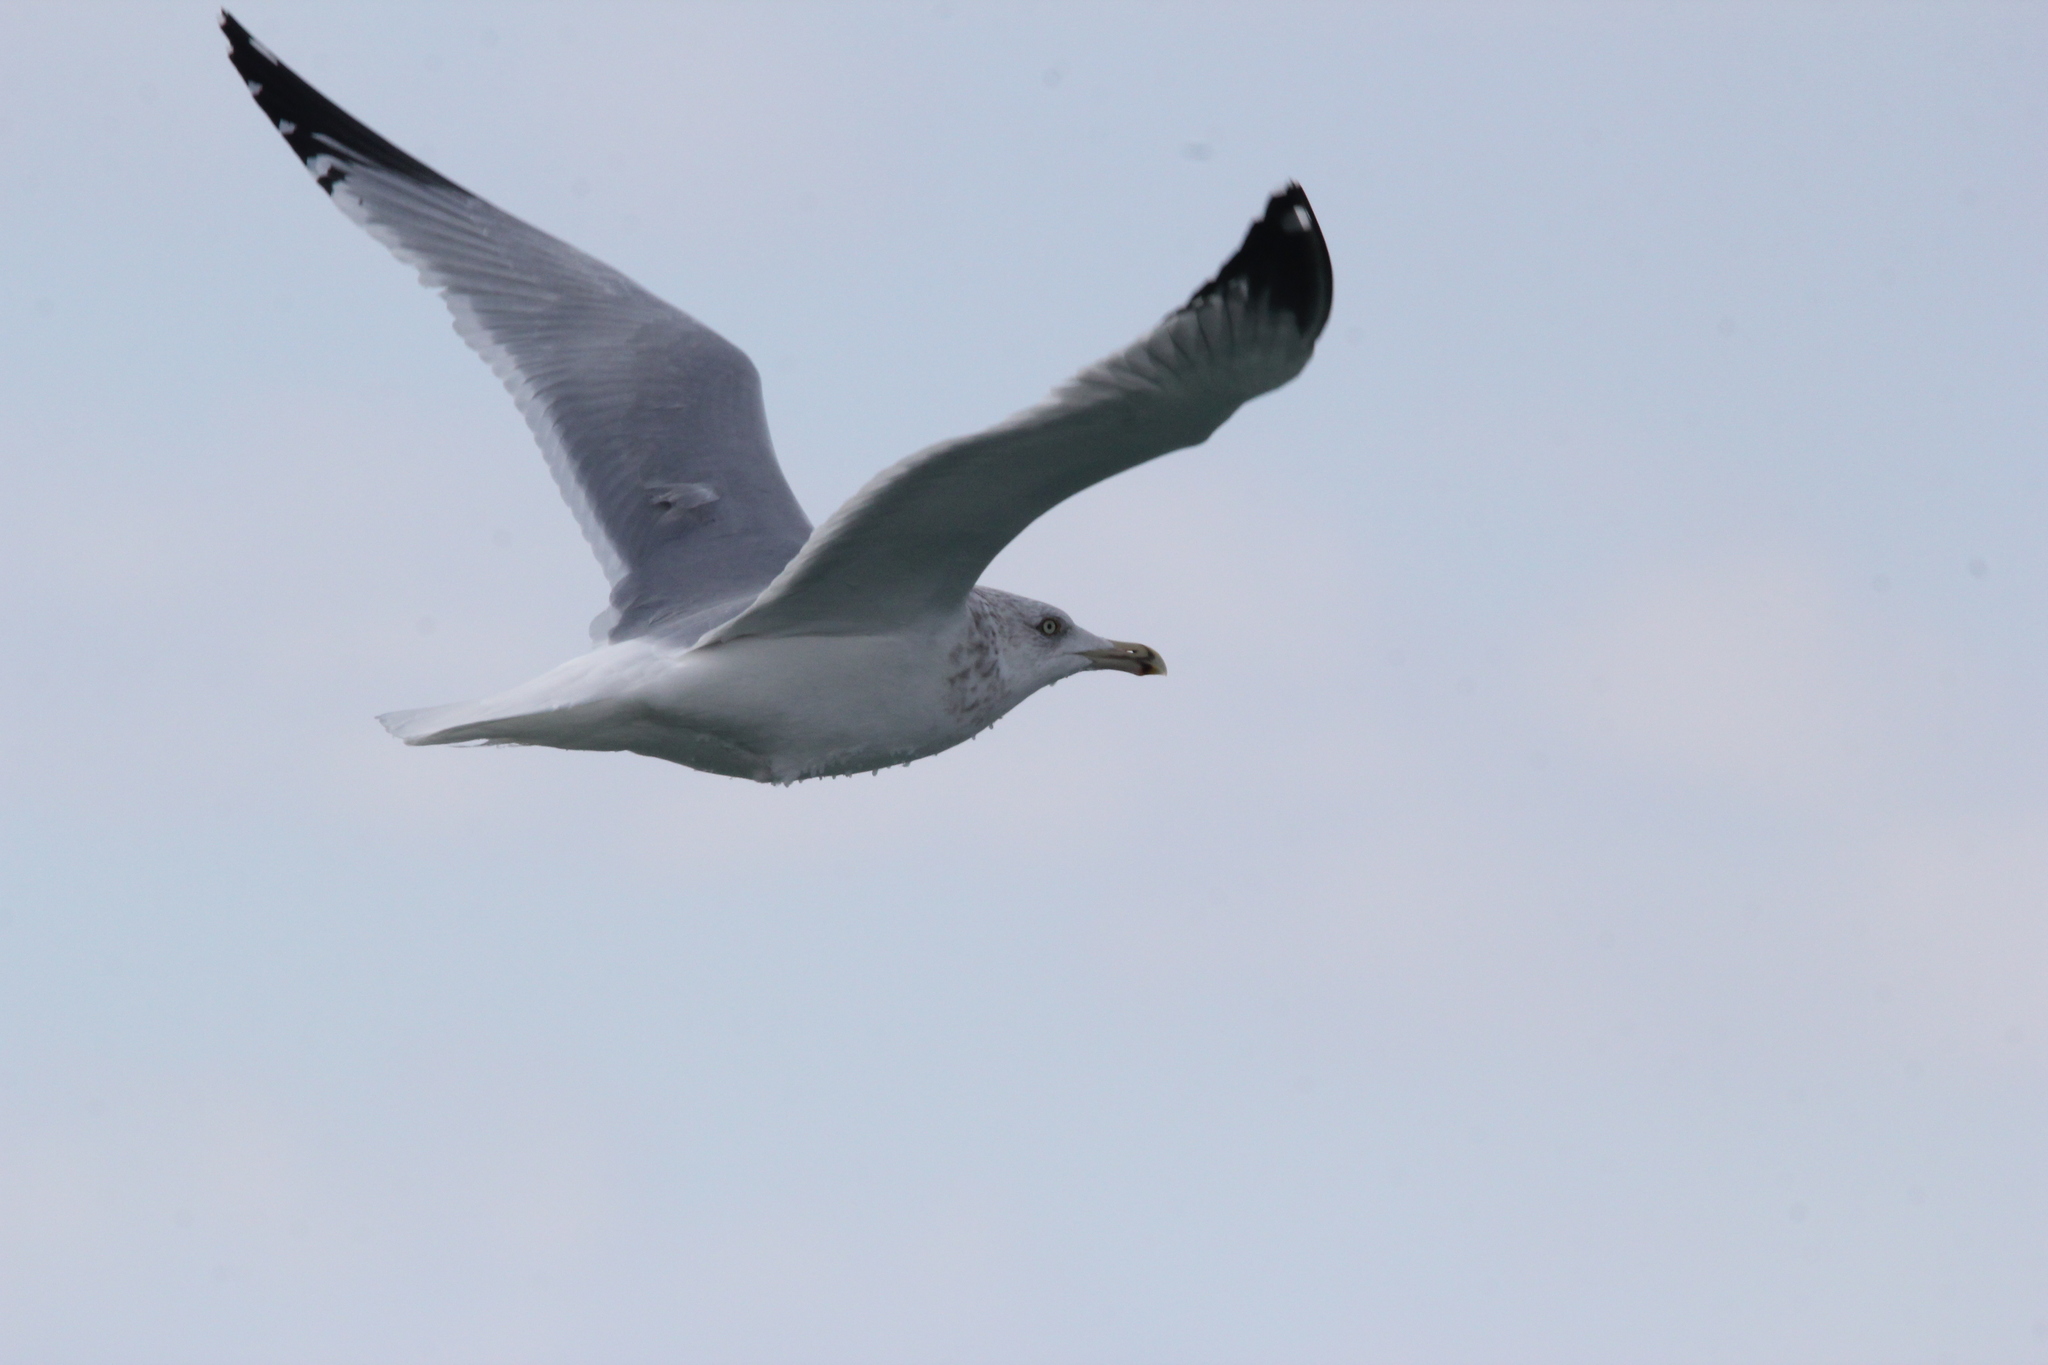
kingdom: Animalia
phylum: Chordata
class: Aves
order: Charadriiformes
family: Laridae
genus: Larus
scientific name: Larus argentatus
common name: Herring gull
